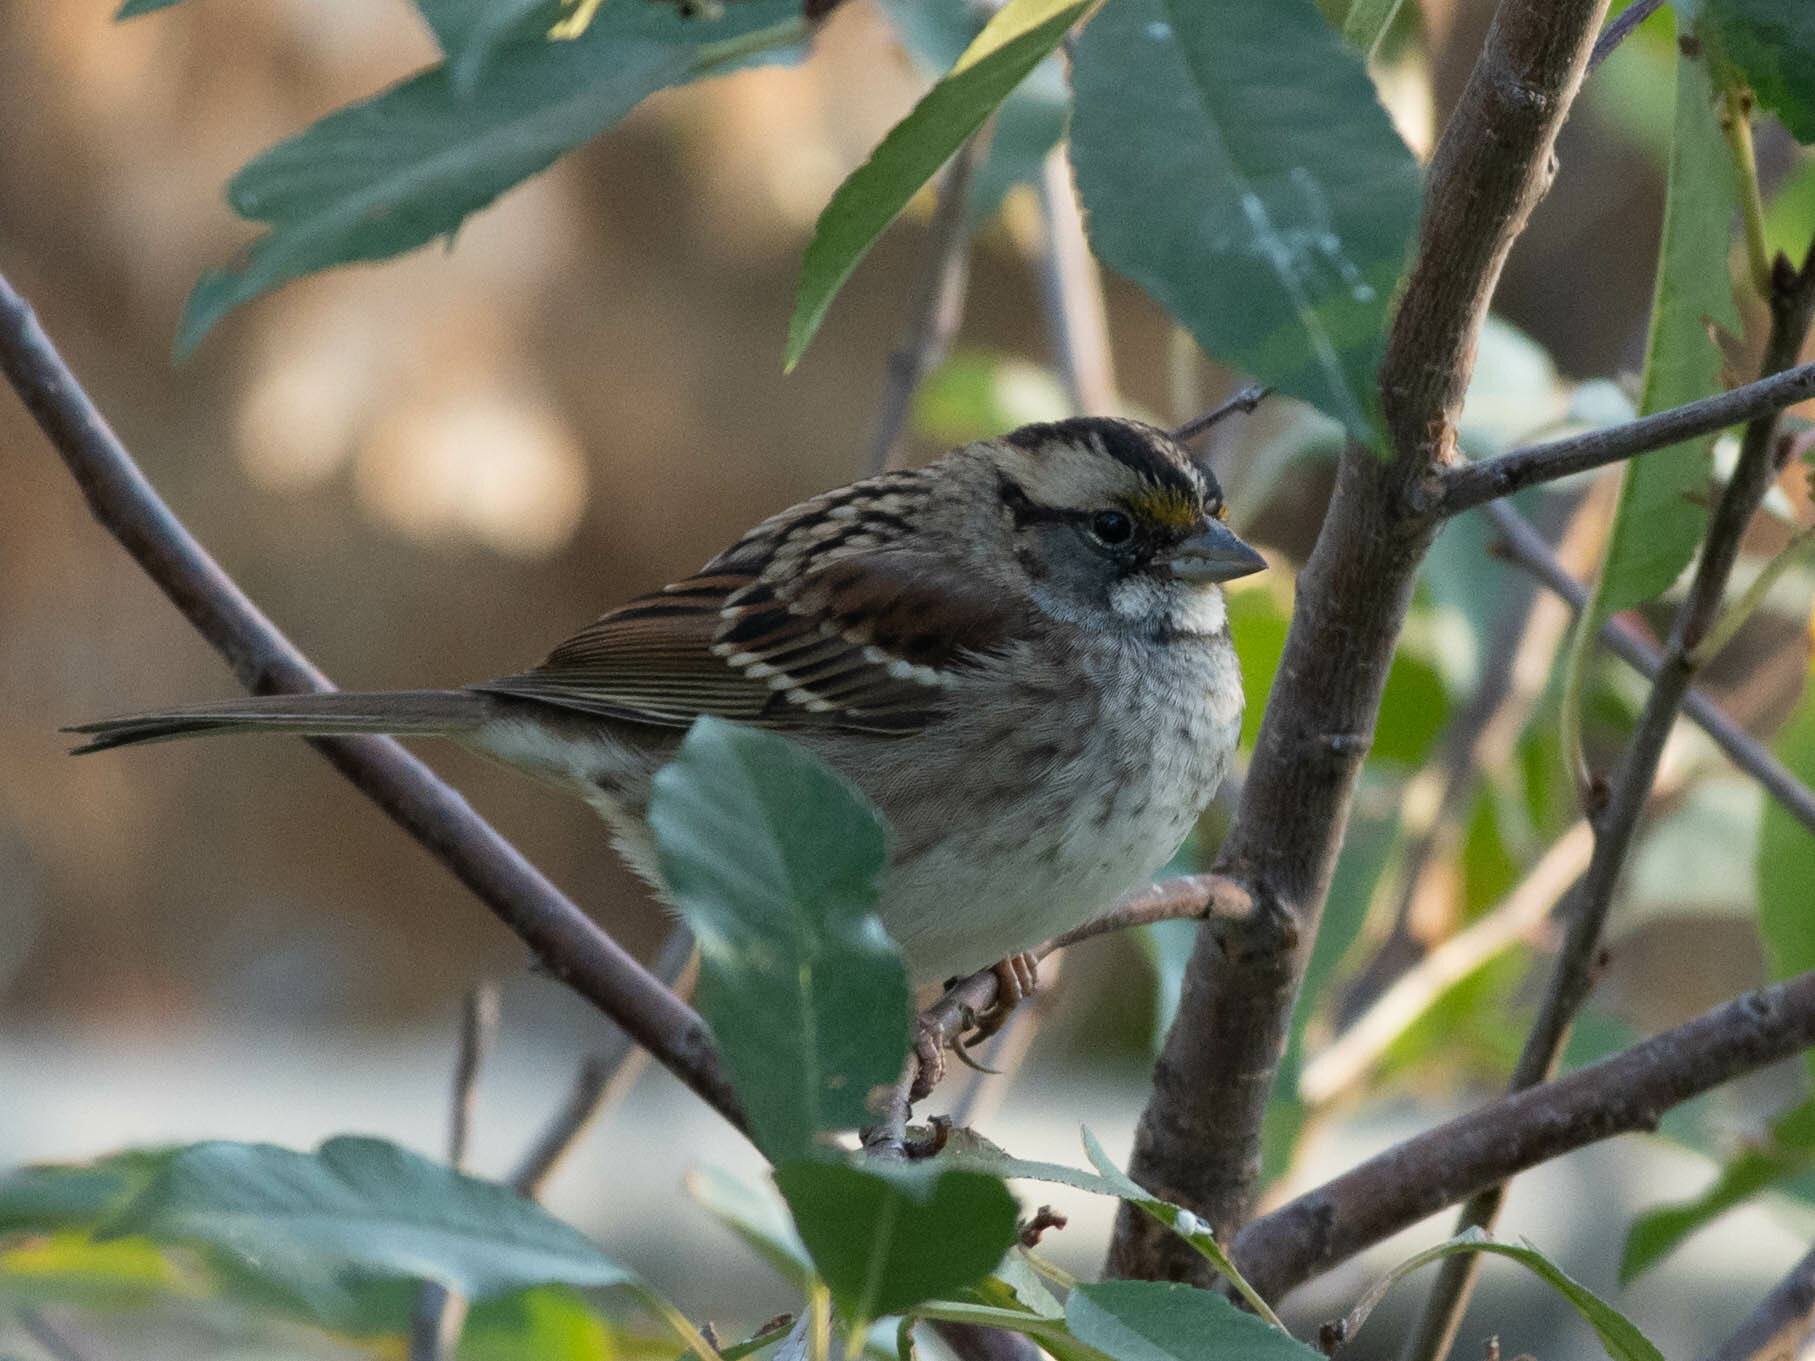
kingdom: Animalia
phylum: Chordata
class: Aves
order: Passeriformes
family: Passerellidae
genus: Zonotrichia
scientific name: Zonotrichia albicollis
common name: White-throated sparrow
